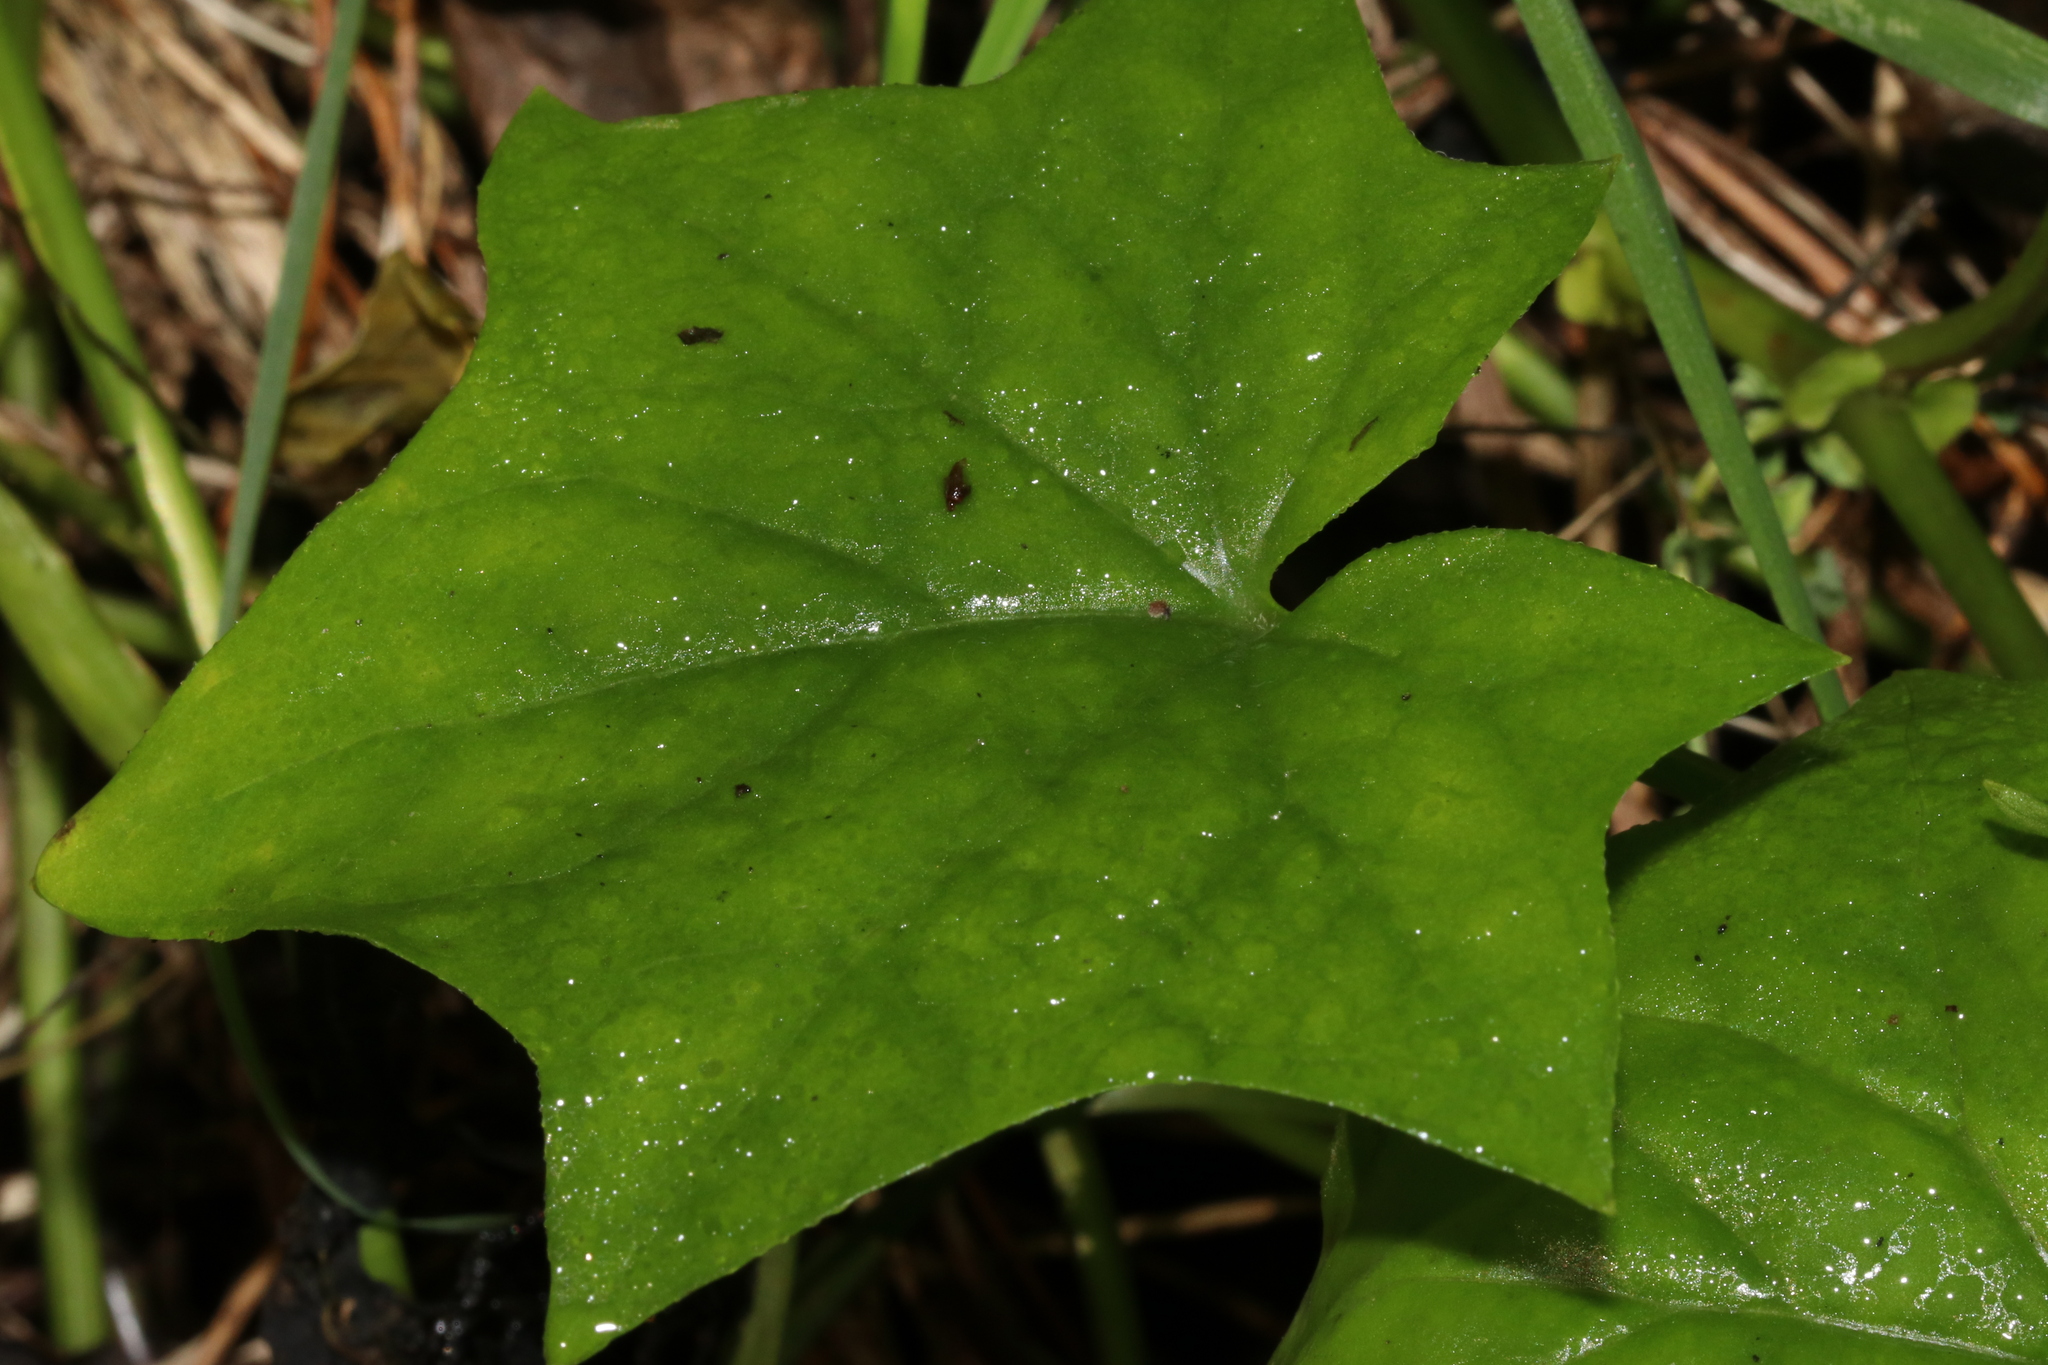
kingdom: Plantae
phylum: Tracheophyta
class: Magnoliopsida
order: Asterales
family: Asteraceae
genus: Delairea
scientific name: Delairea odorata
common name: Cape-ivy
